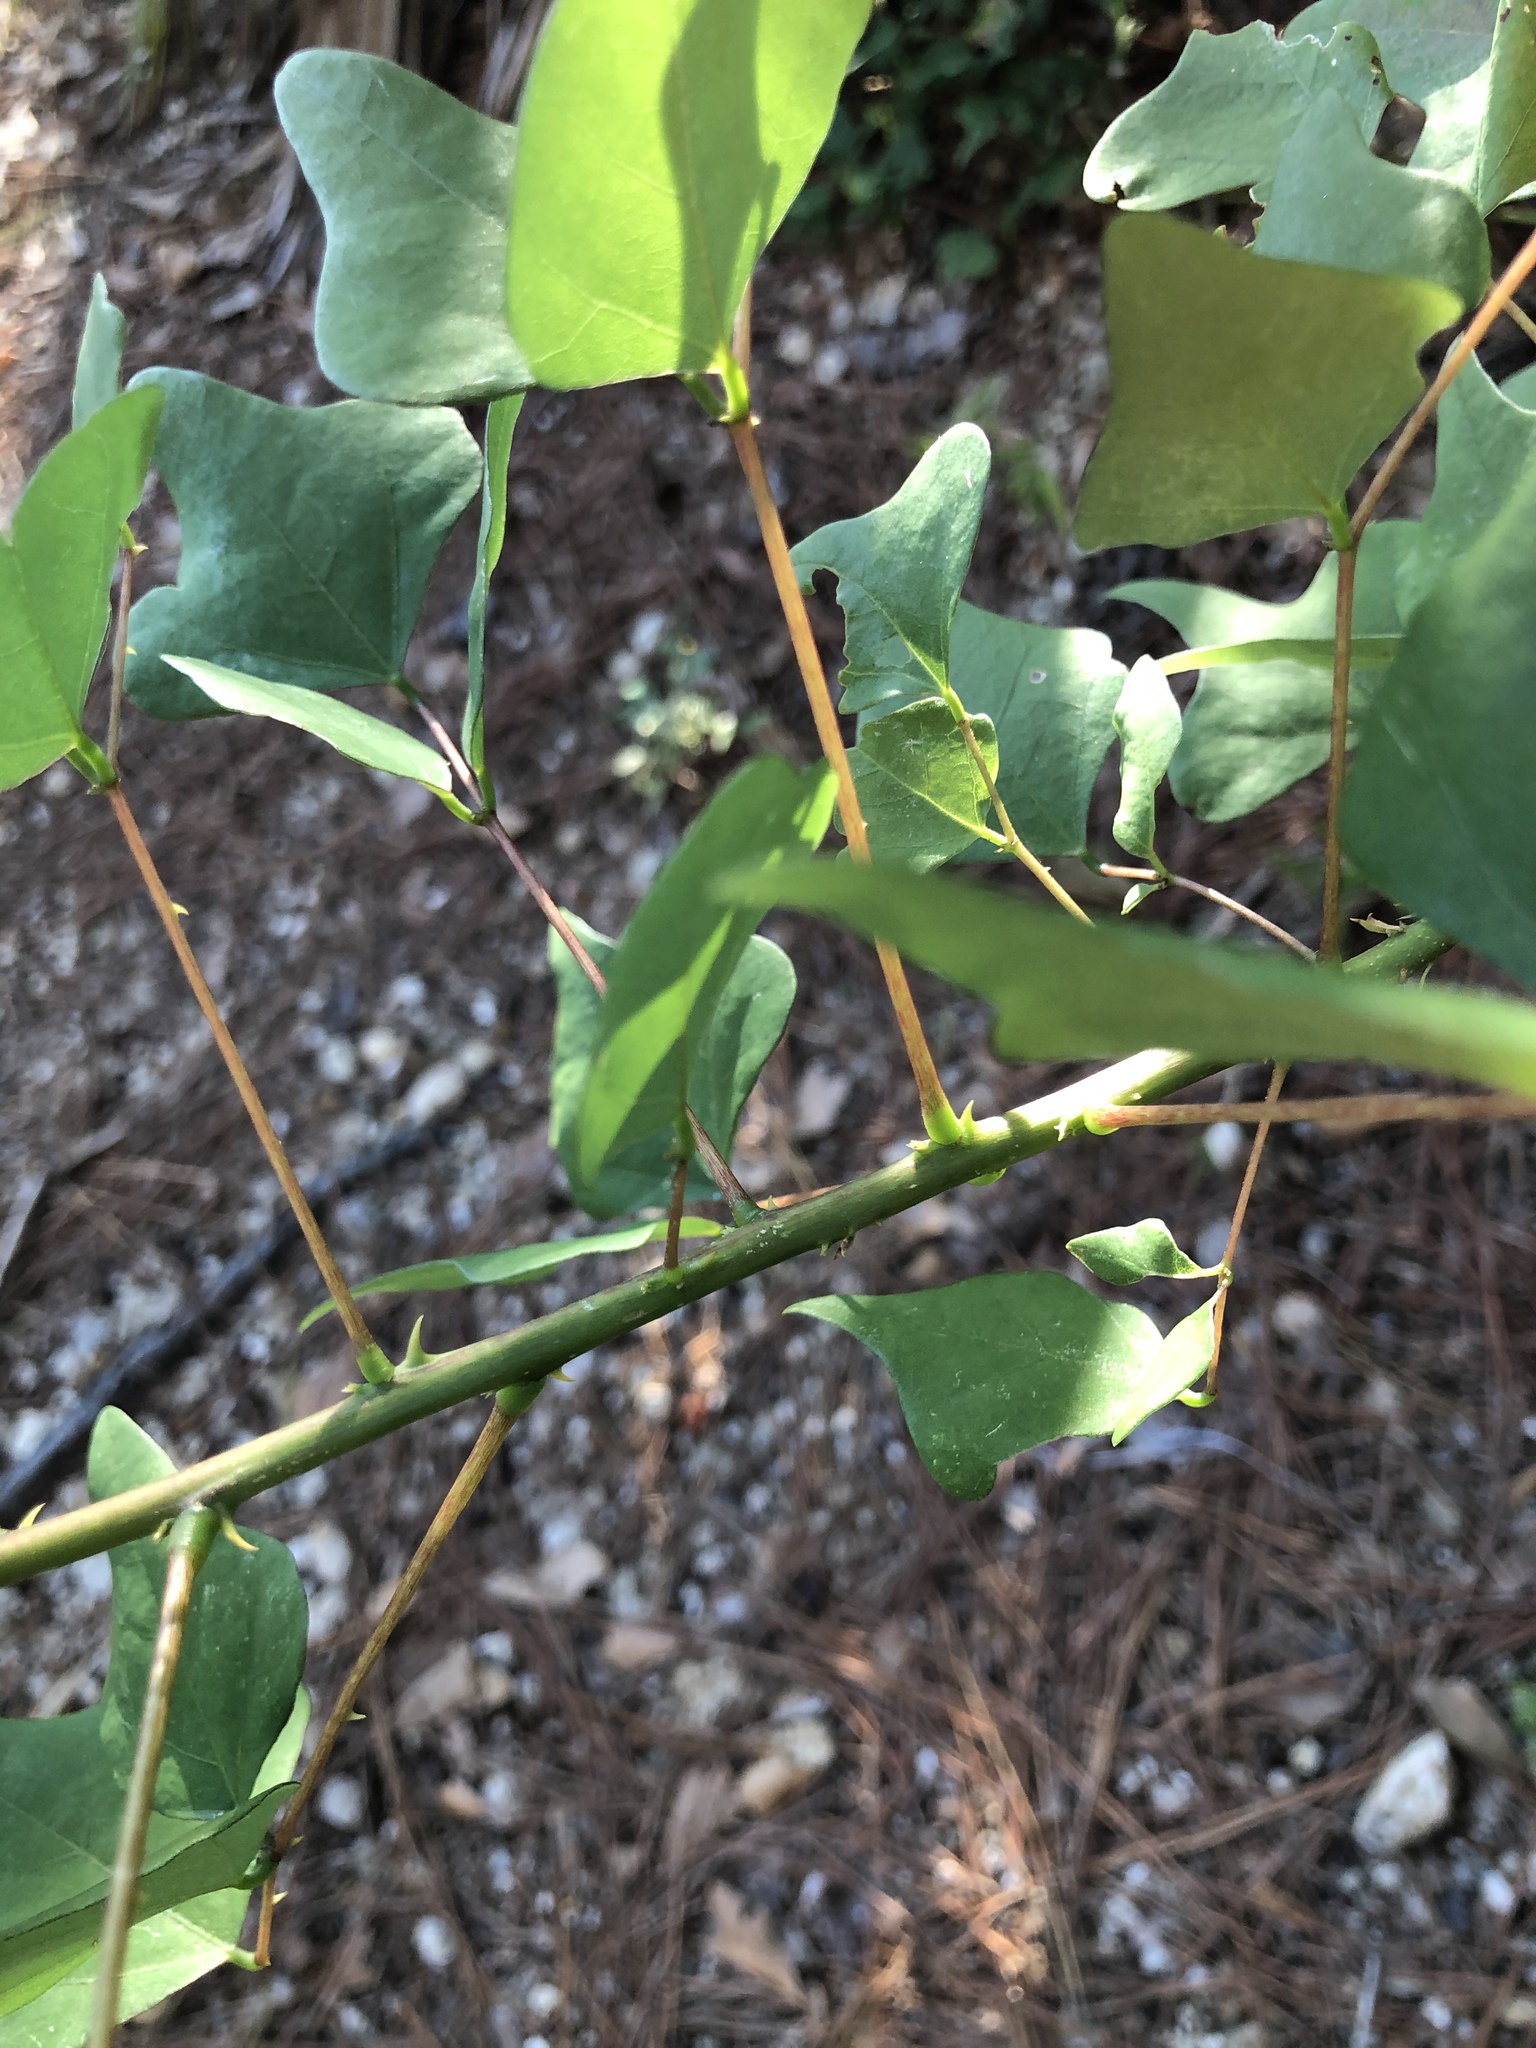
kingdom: Plantae
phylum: Tracheophyta
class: Magnoliopsida
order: Fabales
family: Fabaceae
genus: Erythrina
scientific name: Erythrina herbacea
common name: Coral-bean
